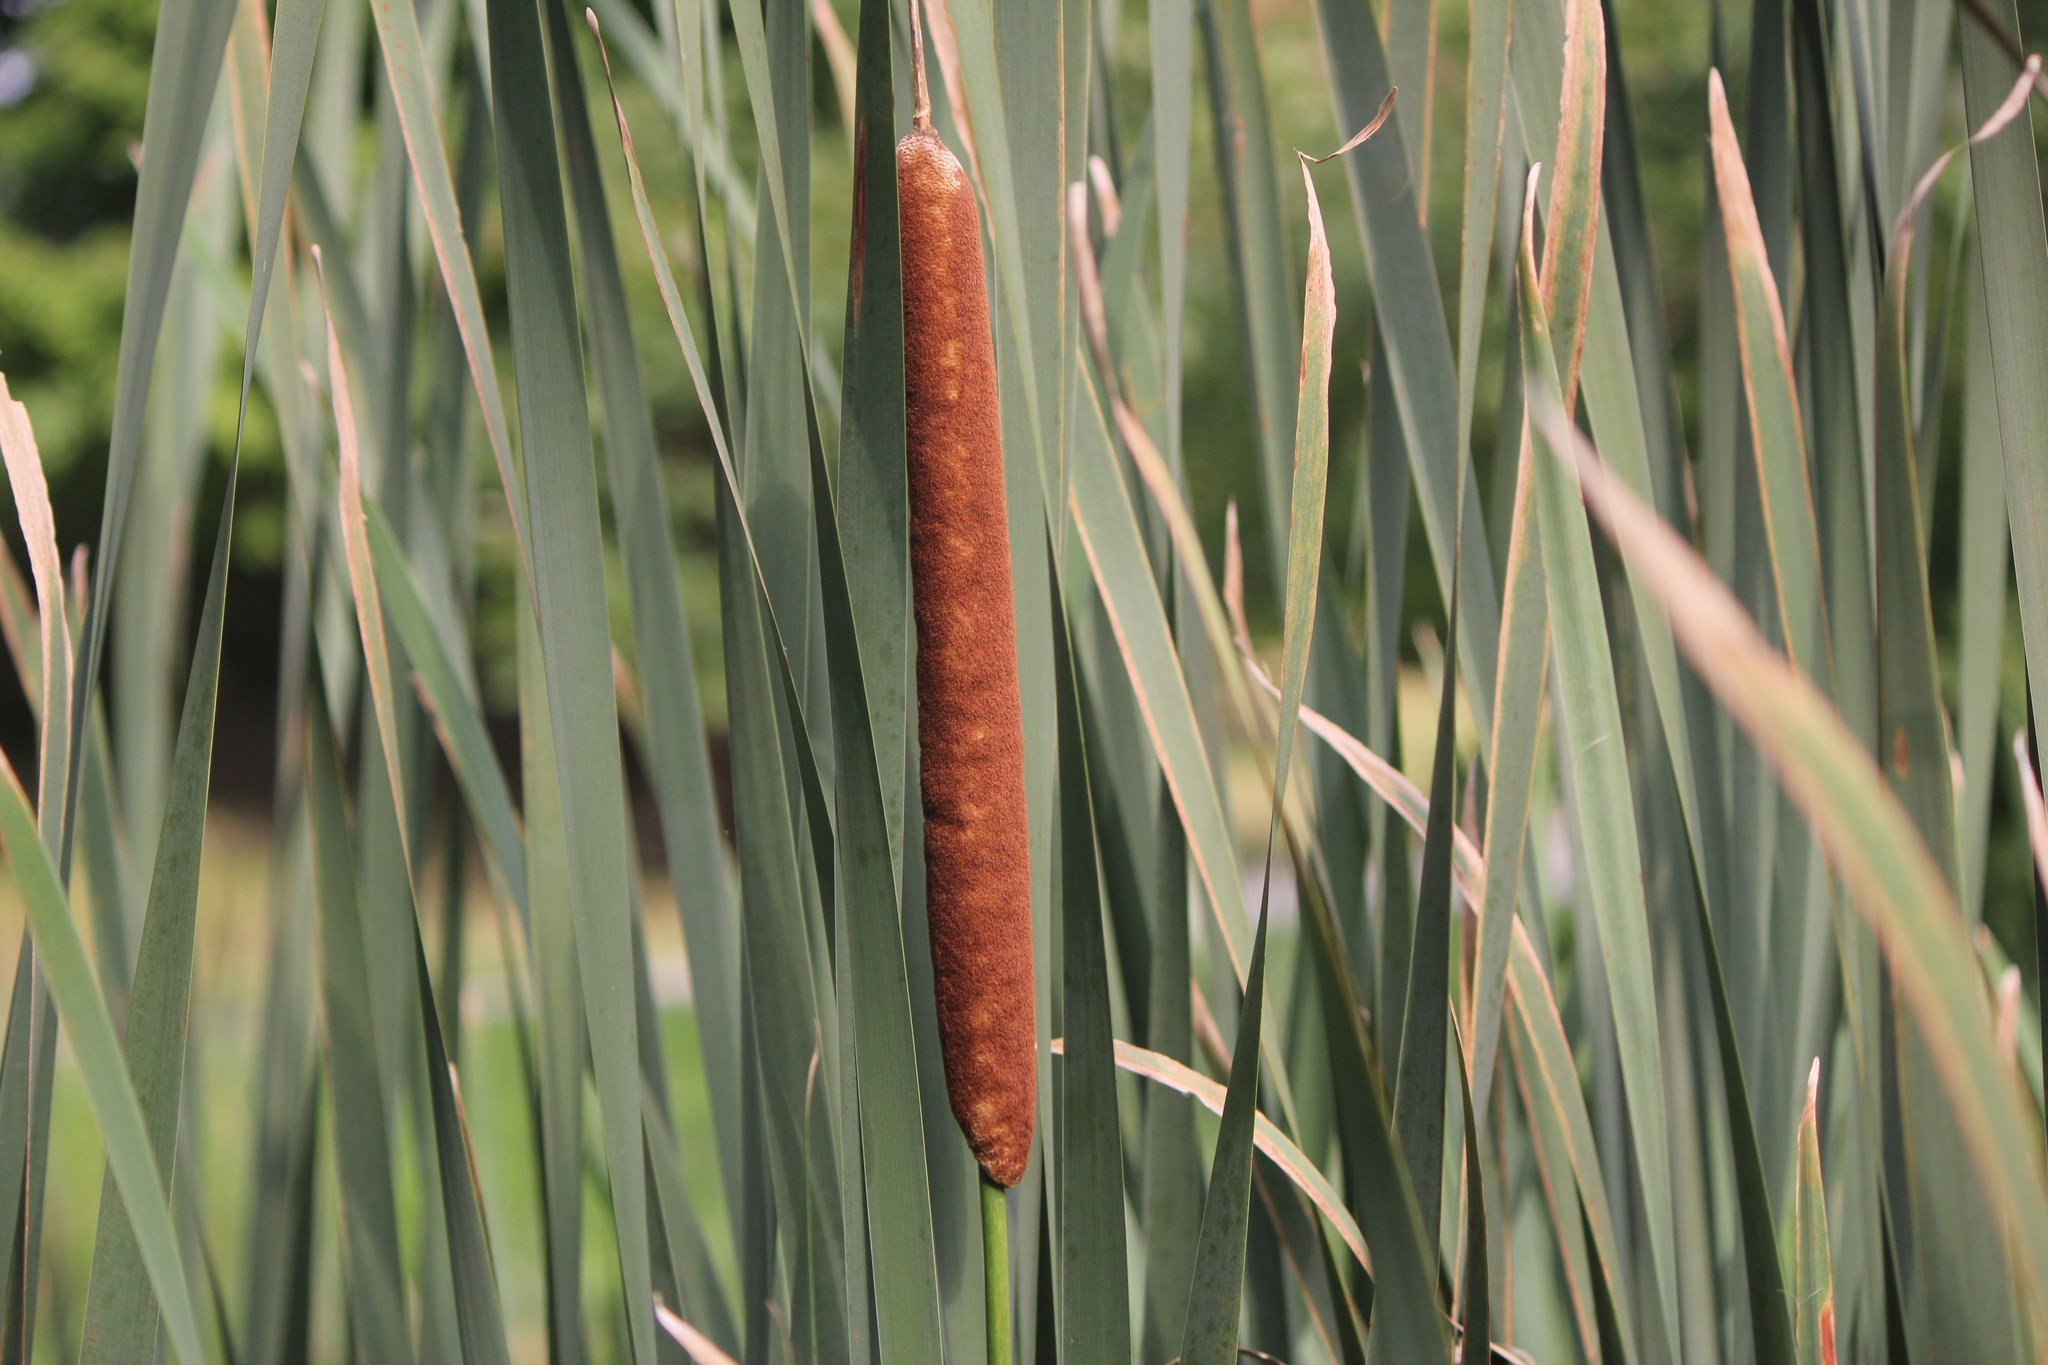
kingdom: Plantae
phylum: Tracheophyta
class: Liliopsida
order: Poales
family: Typhaceae
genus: Typha
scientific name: Typha latifolia
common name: Broadleaf cattail
